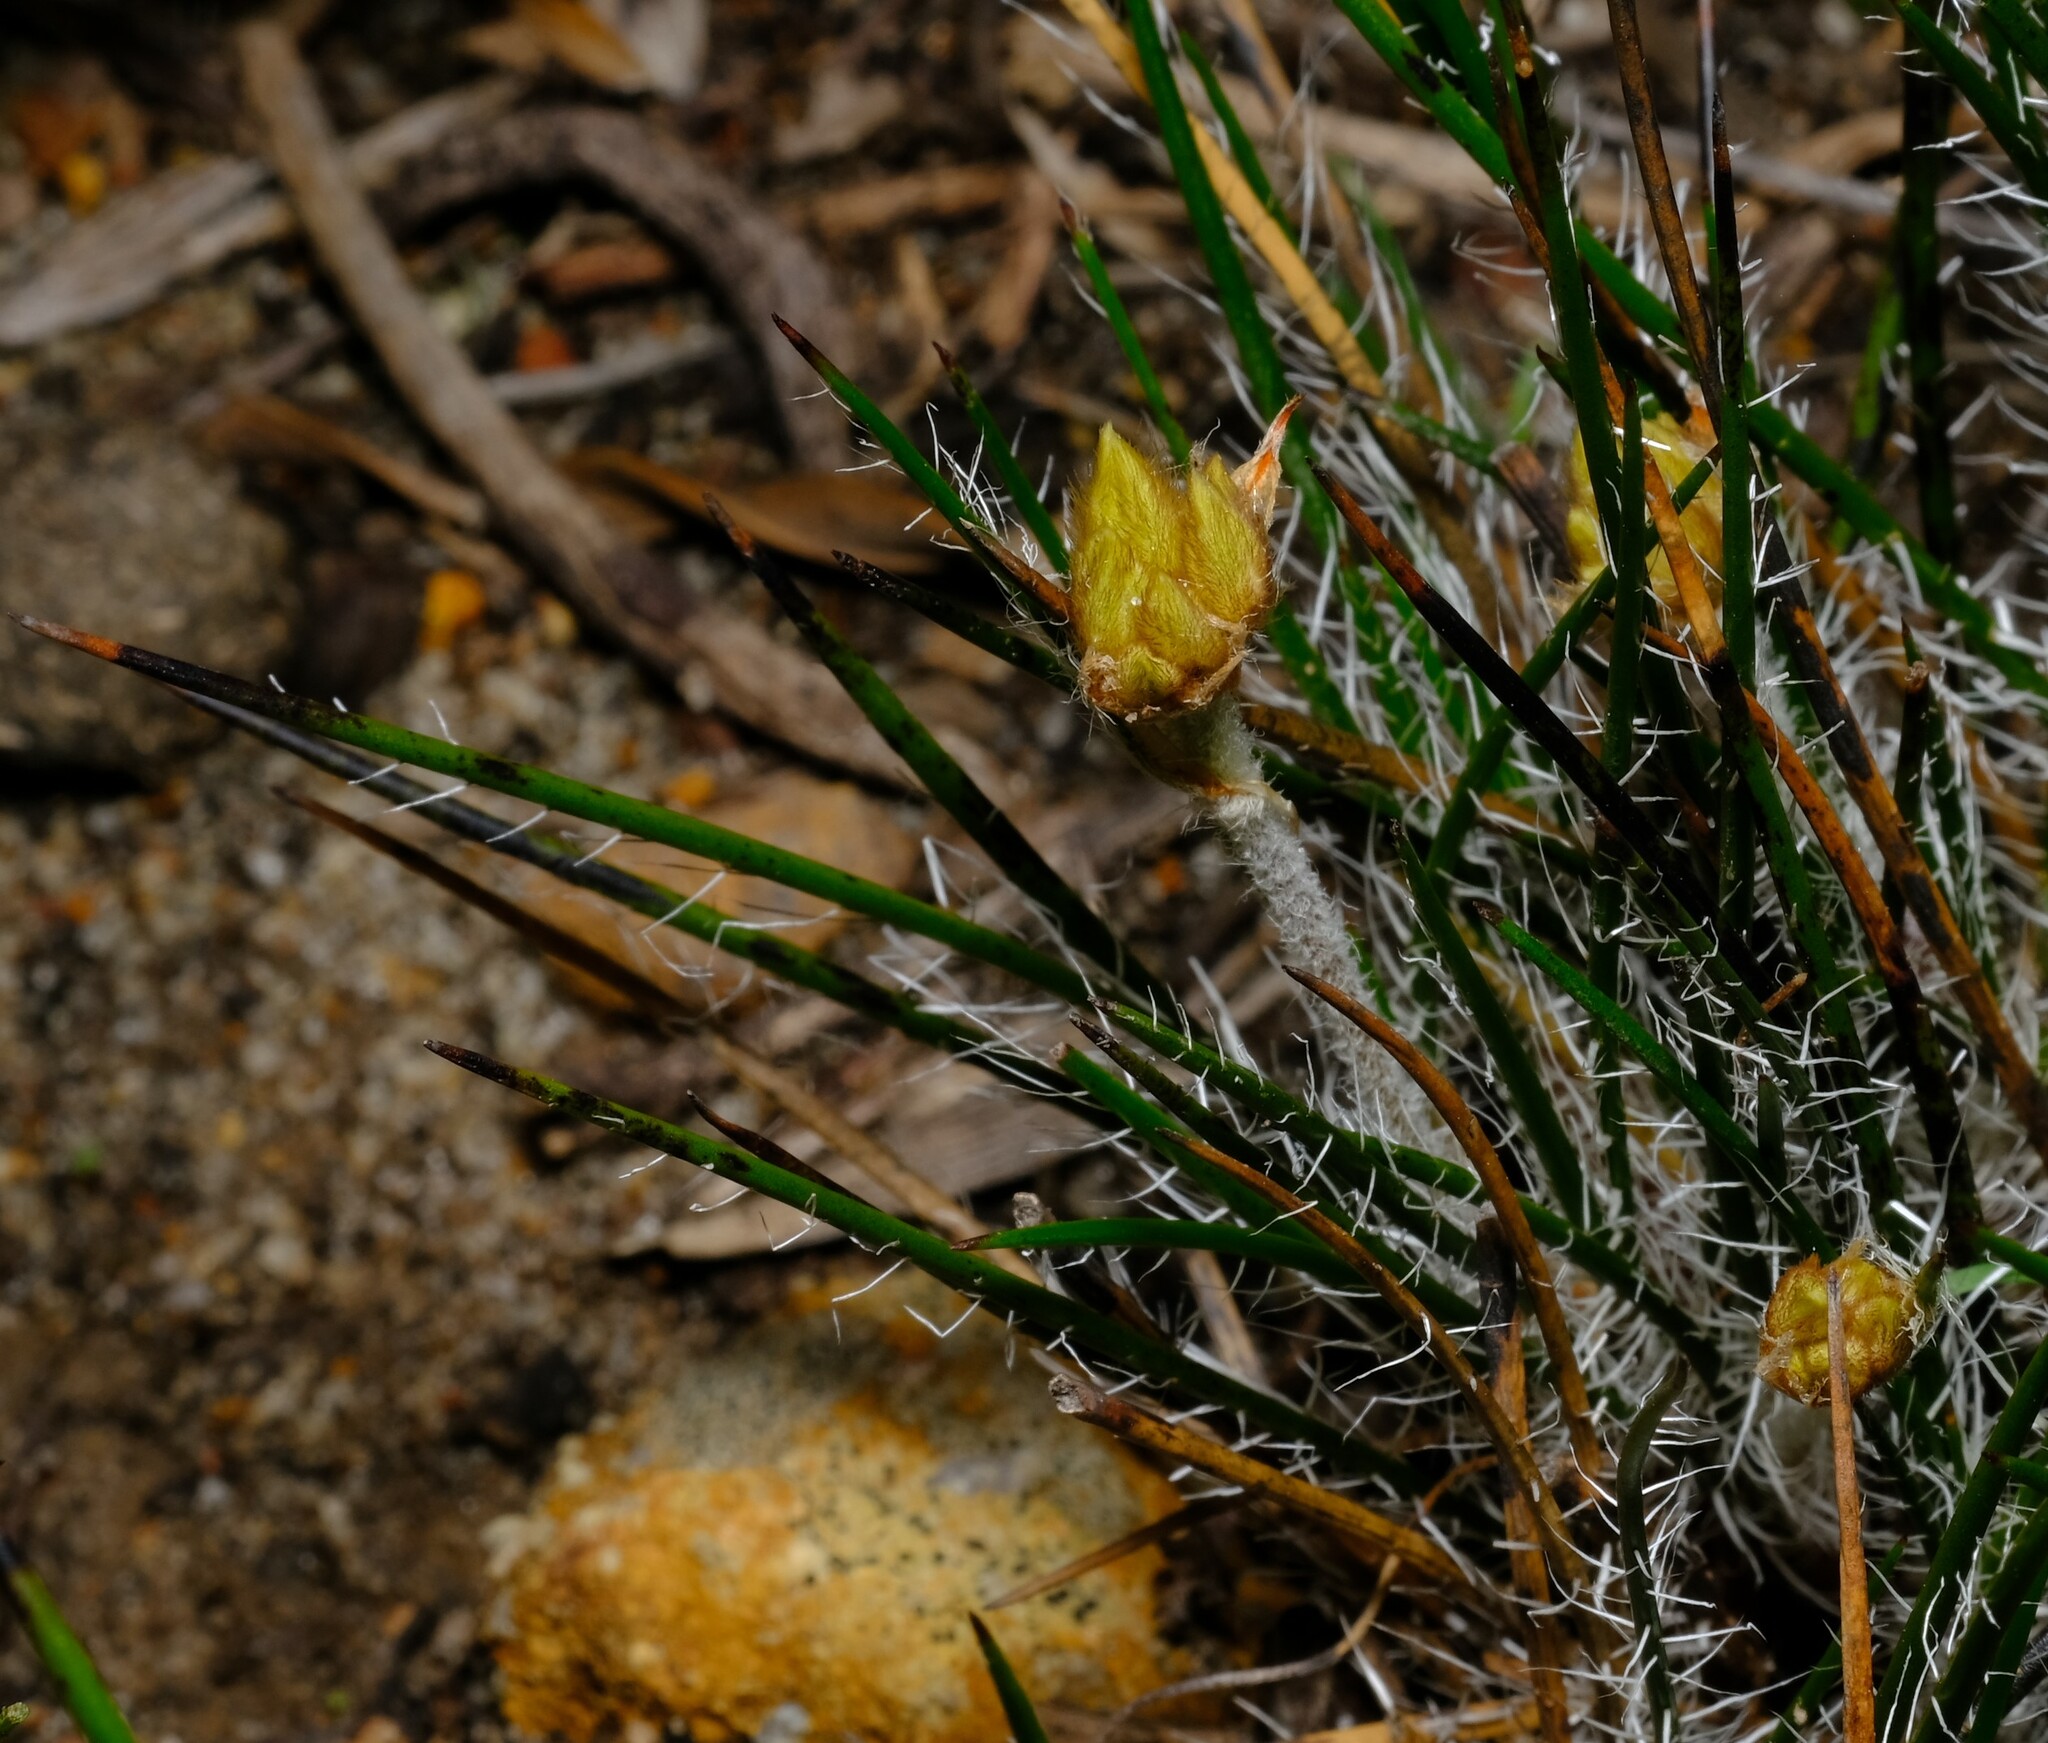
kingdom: Plantae
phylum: Tracheophyta
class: Liliopsida
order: Commelinales
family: Haemodoraceae
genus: Conostylis
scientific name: Conostylis teretifolia
